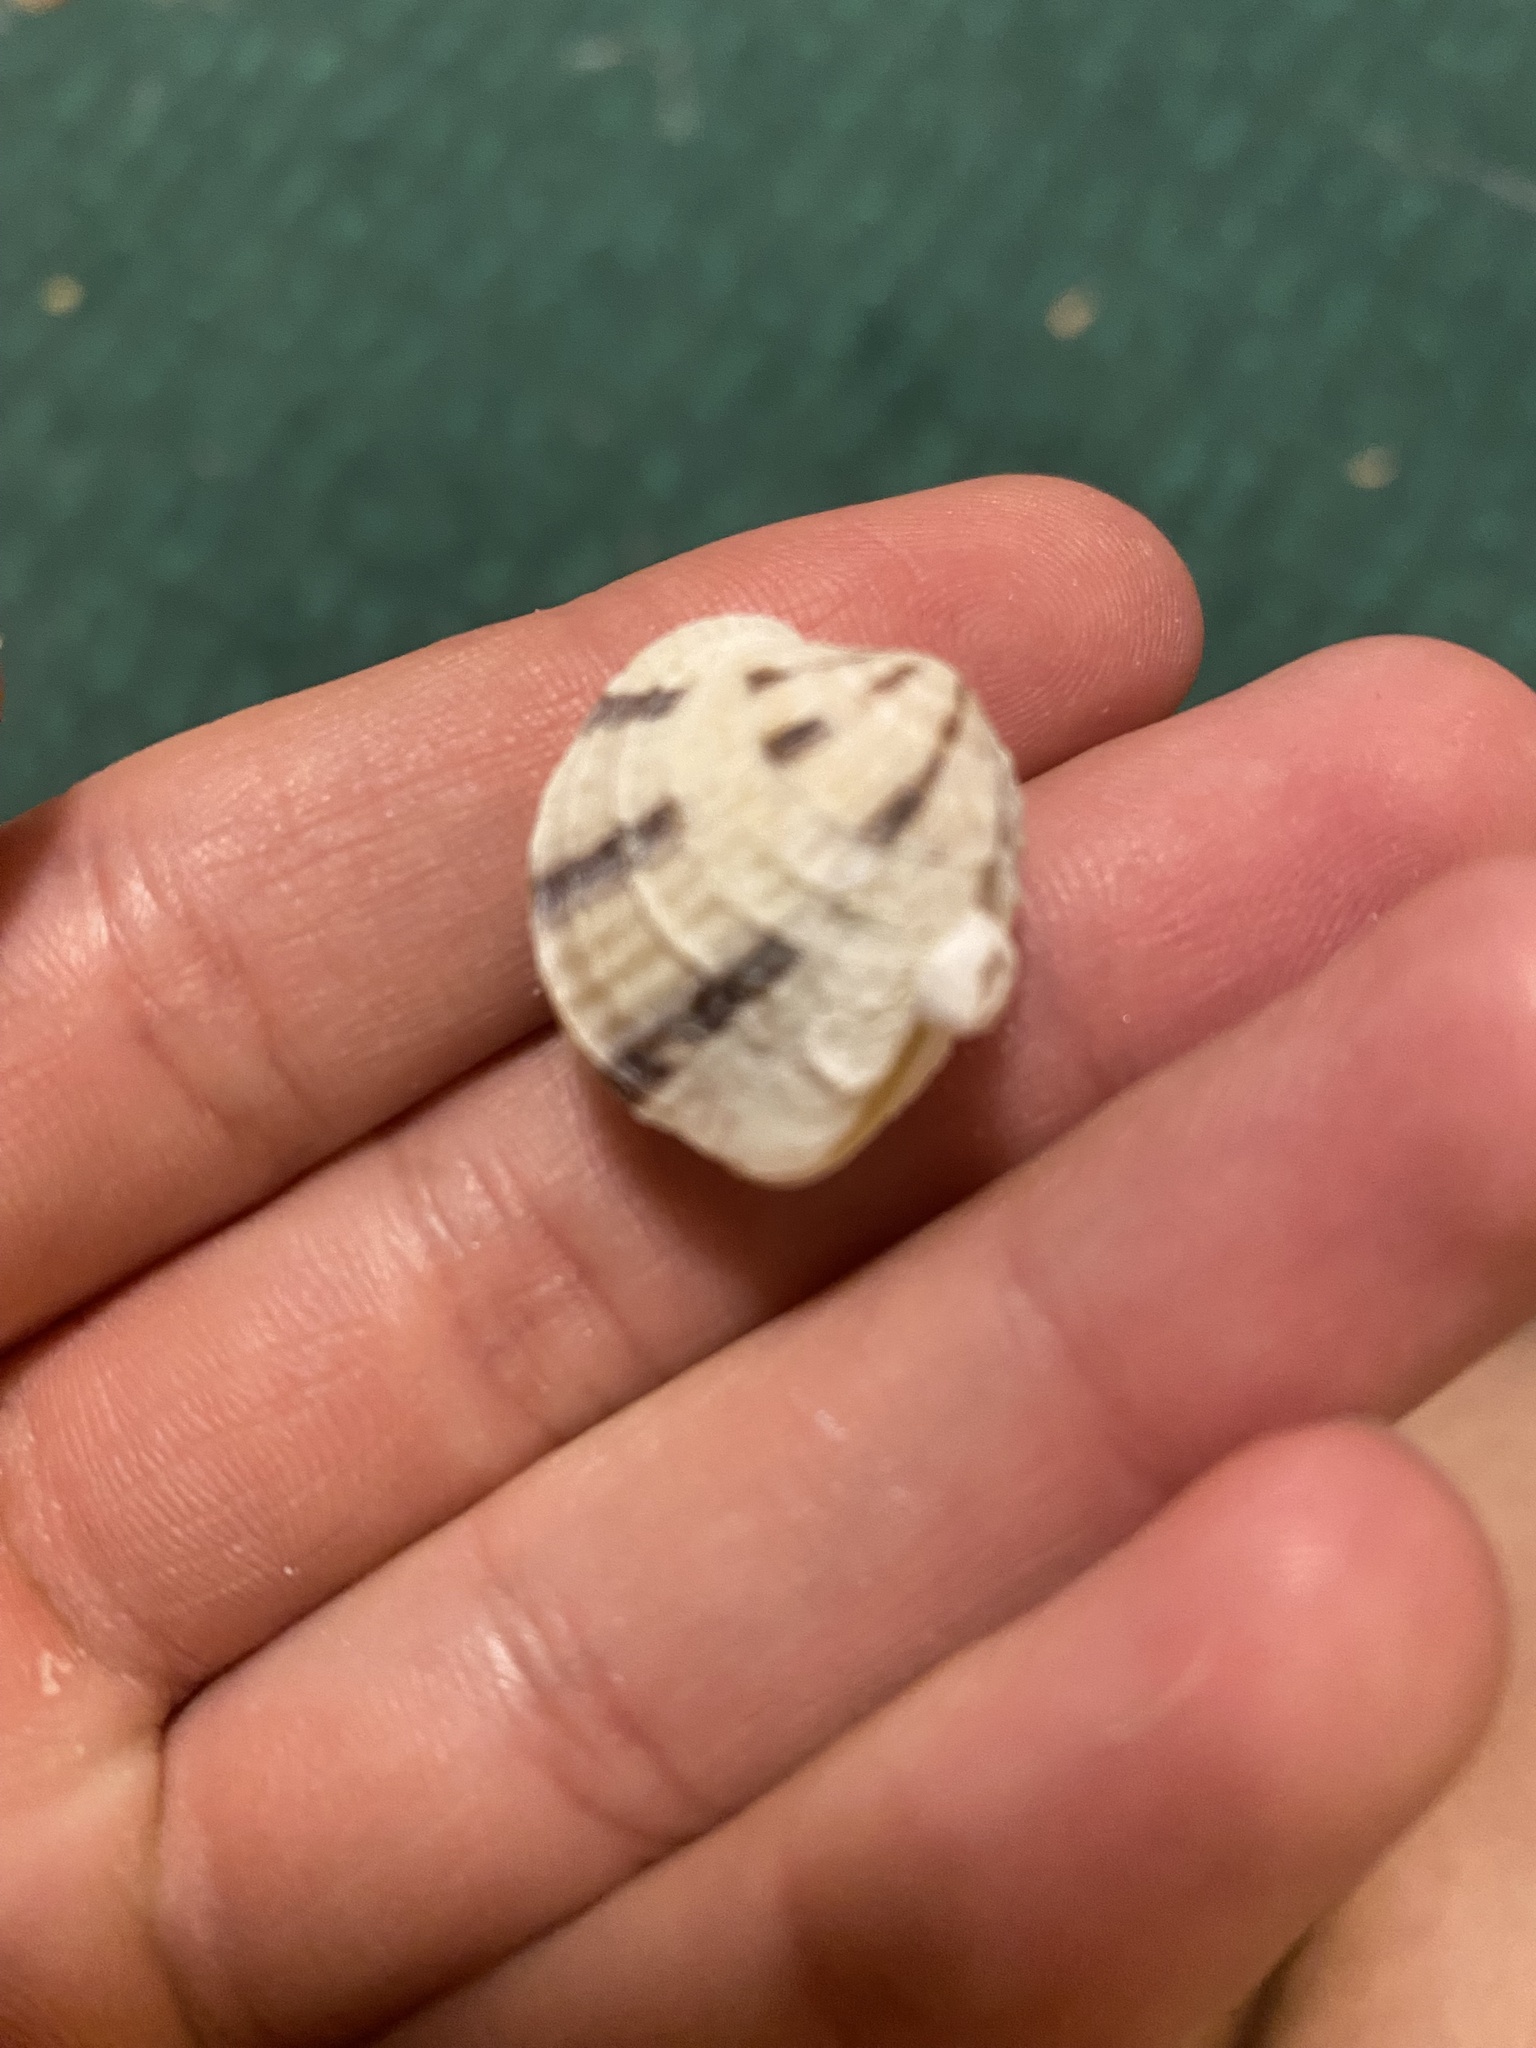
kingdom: Animalia
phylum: Mollusca
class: Bivalvia
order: Venerida
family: Veneridae
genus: Chione
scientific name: Chione elevata
